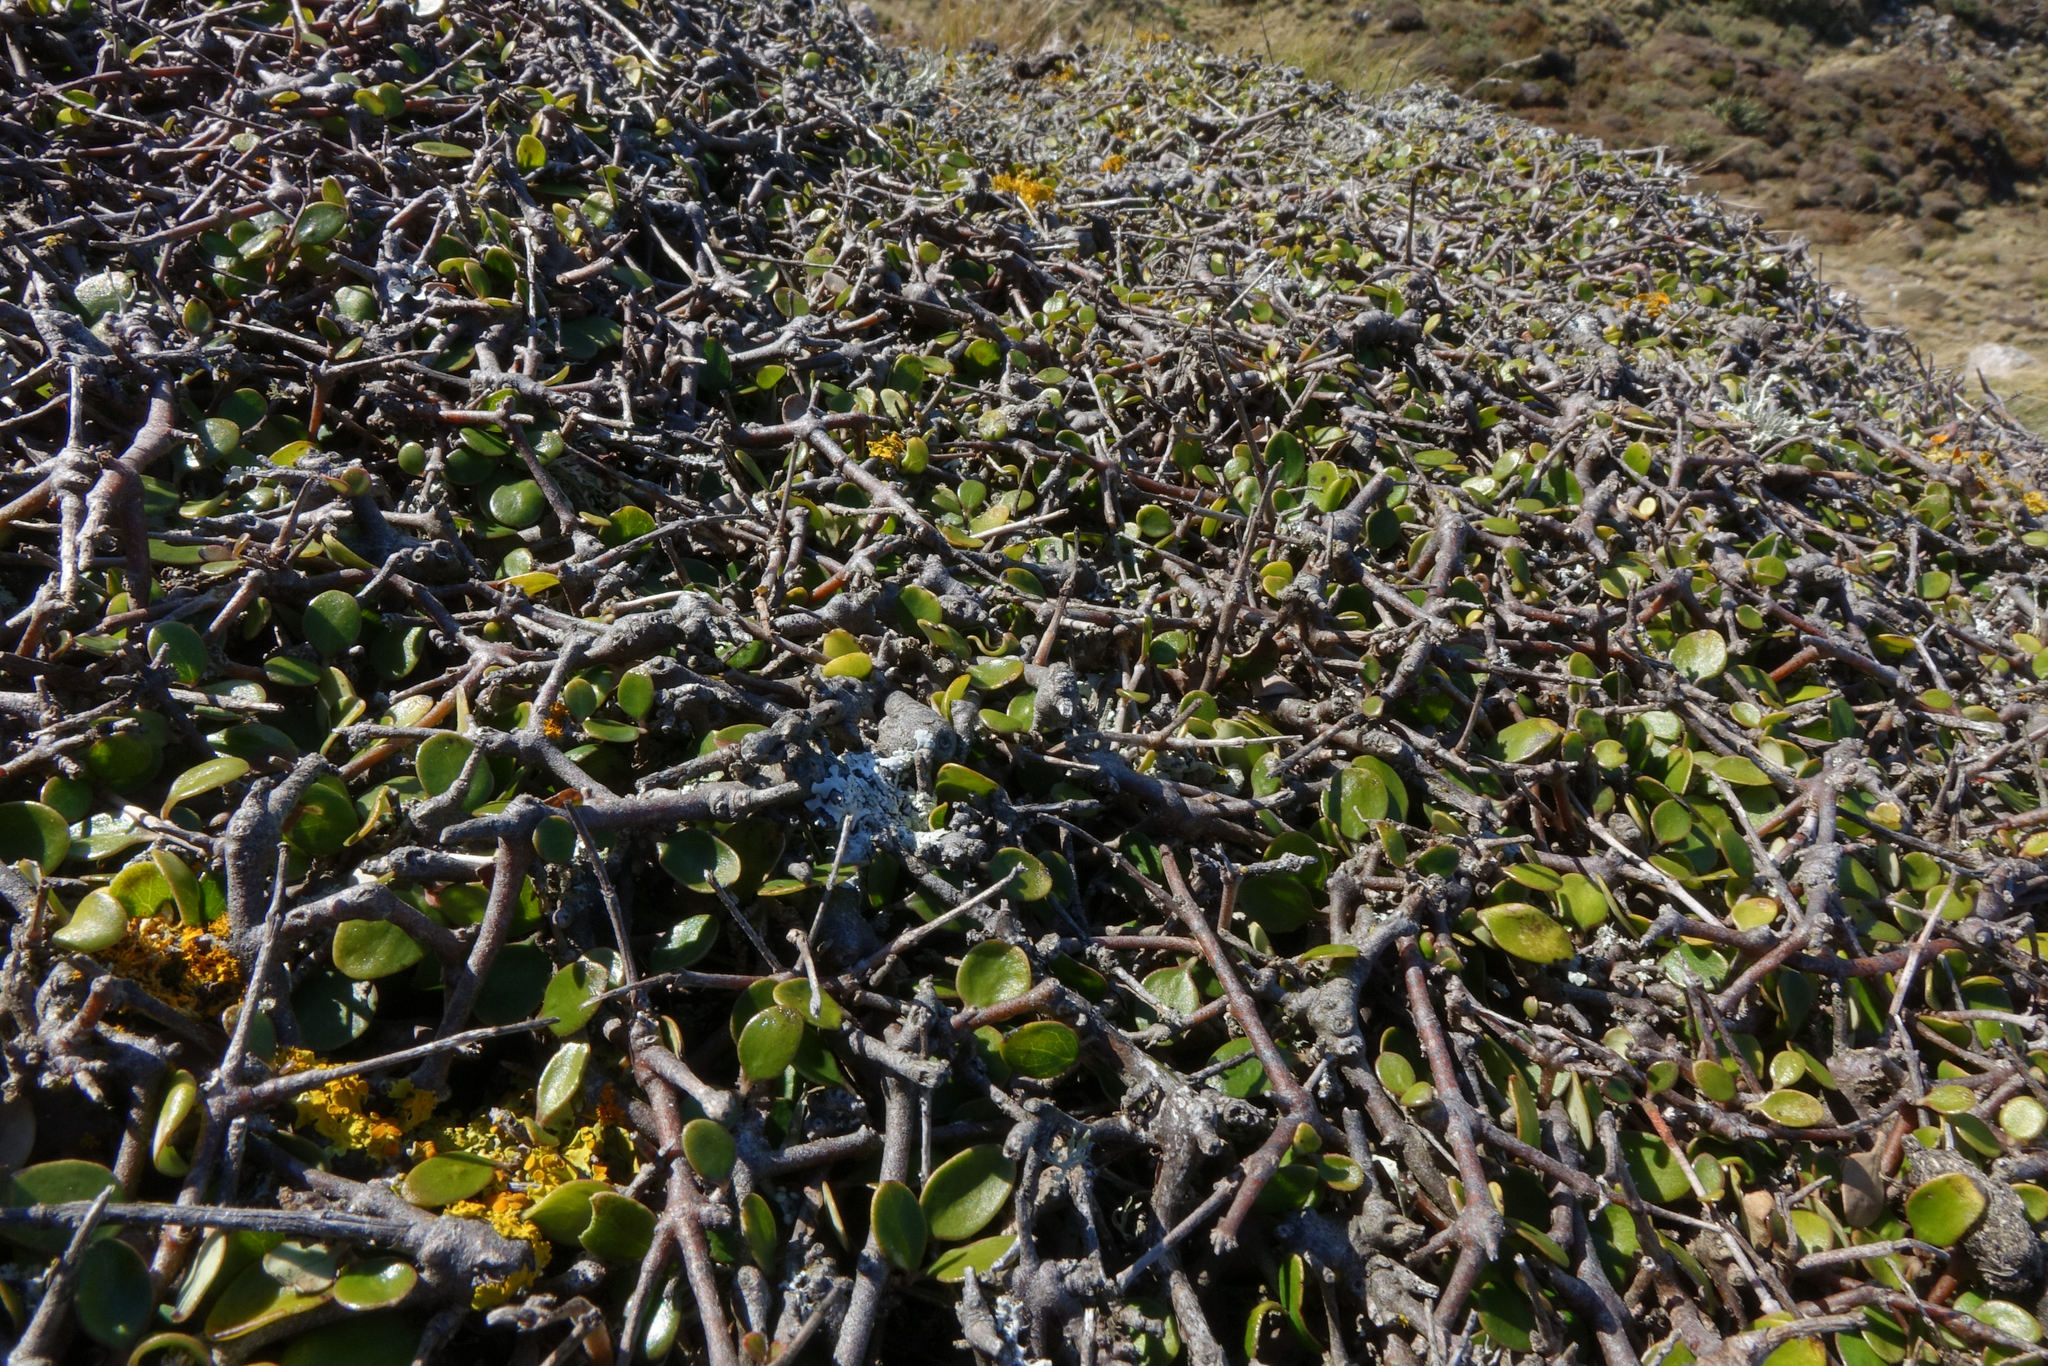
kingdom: Plantae
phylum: Tracheophyta
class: Magnoliopsida
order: Gentianales
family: Rubiaceae
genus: Coprosma
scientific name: Coprosma crassifolia
